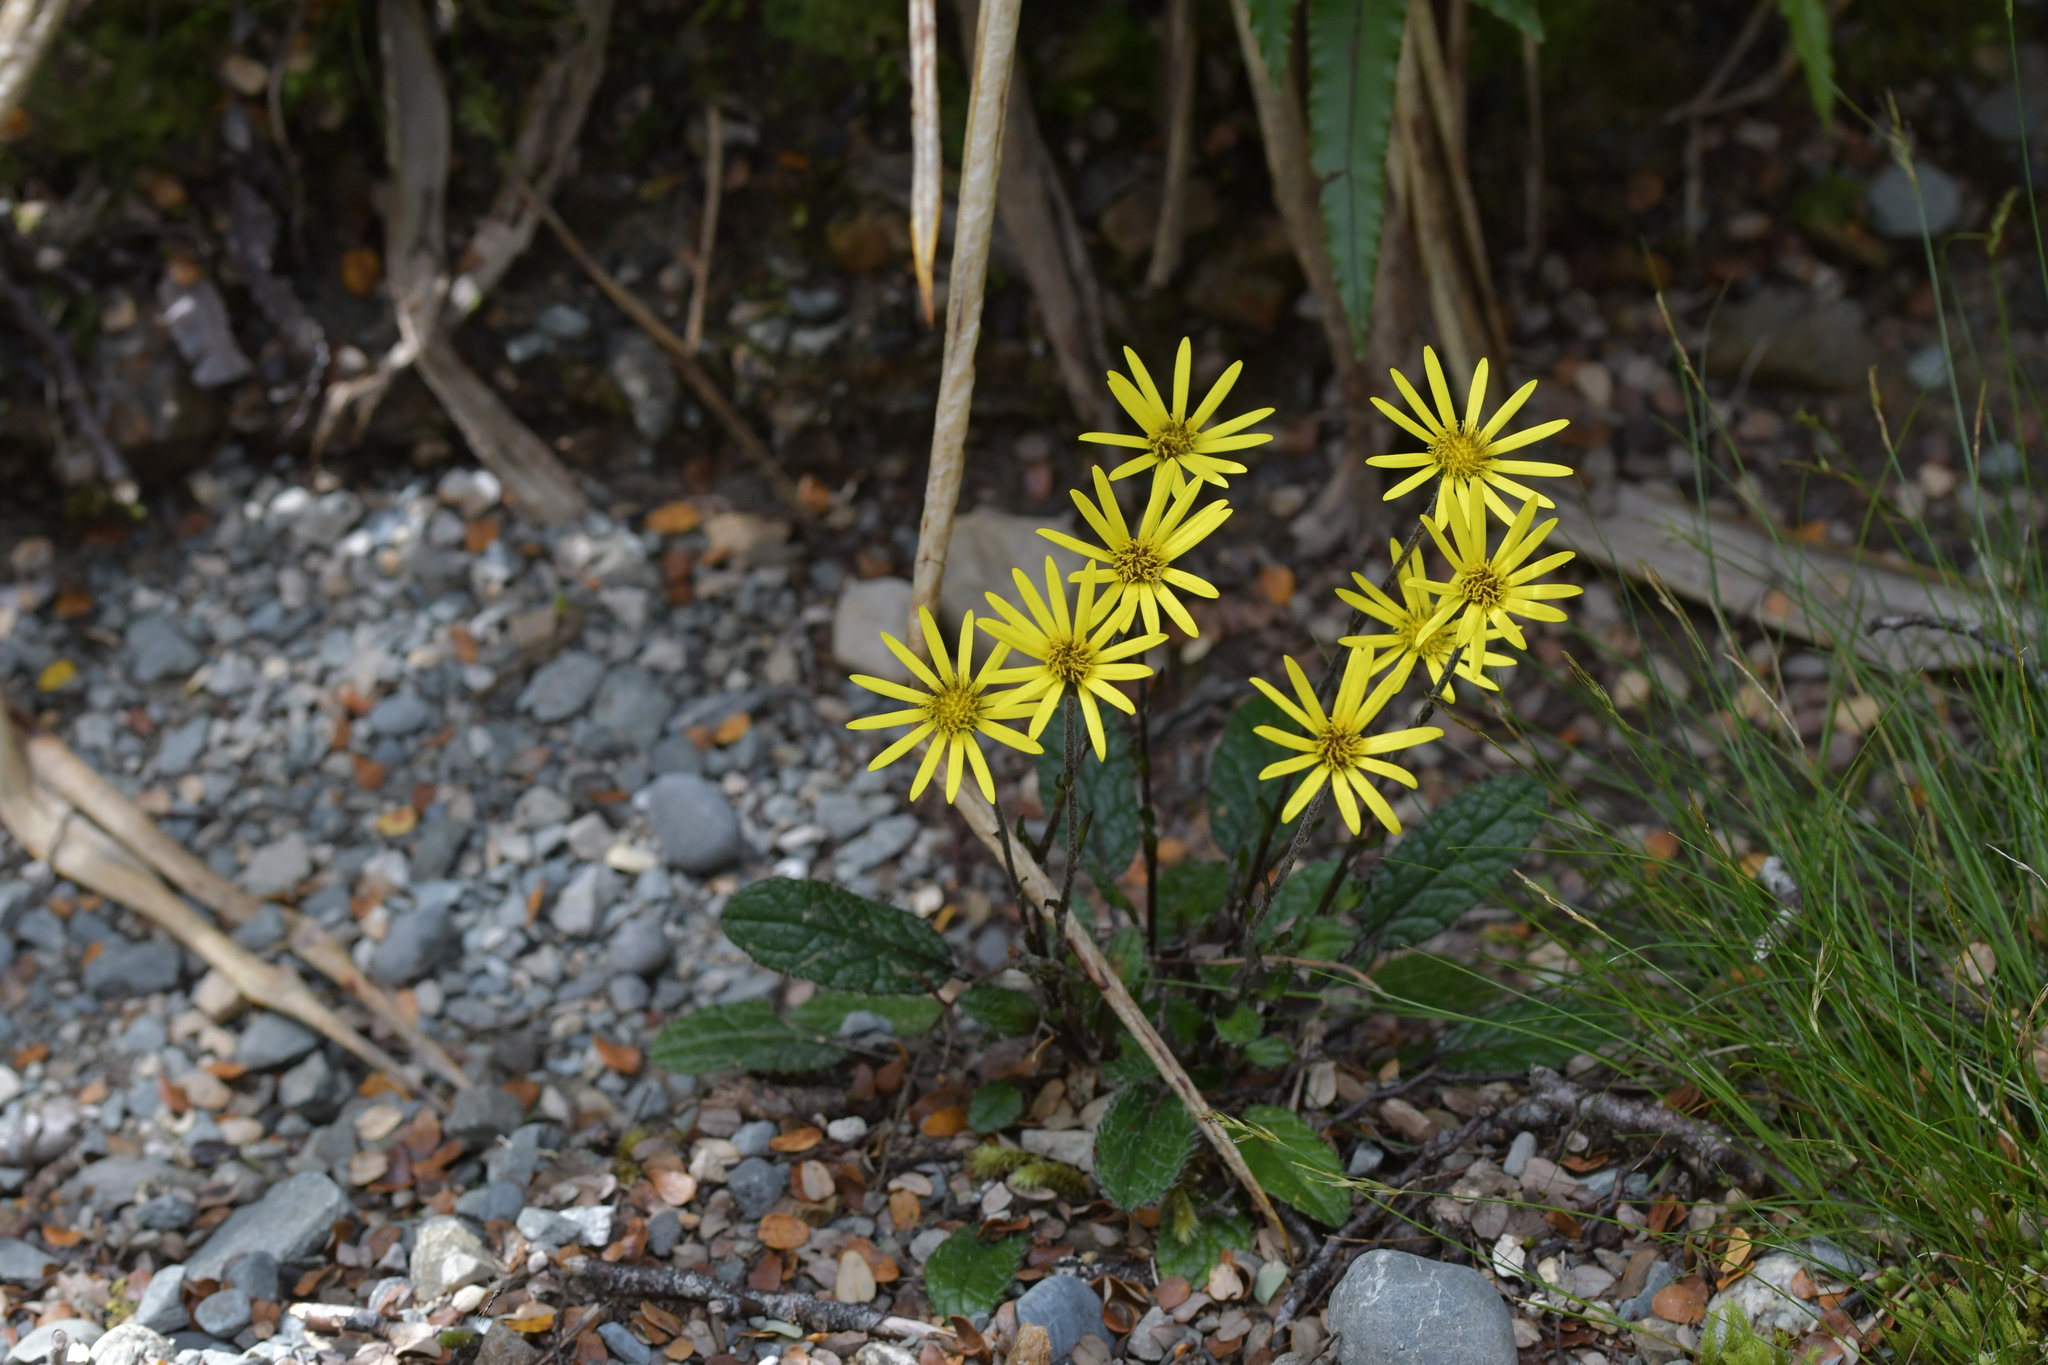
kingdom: Plantae
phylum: Tracheophyta
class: Magnoliopsida
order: Asterales
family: Asteraceae
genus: Brachyglottis
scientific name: Brachyglottis bellidioides
